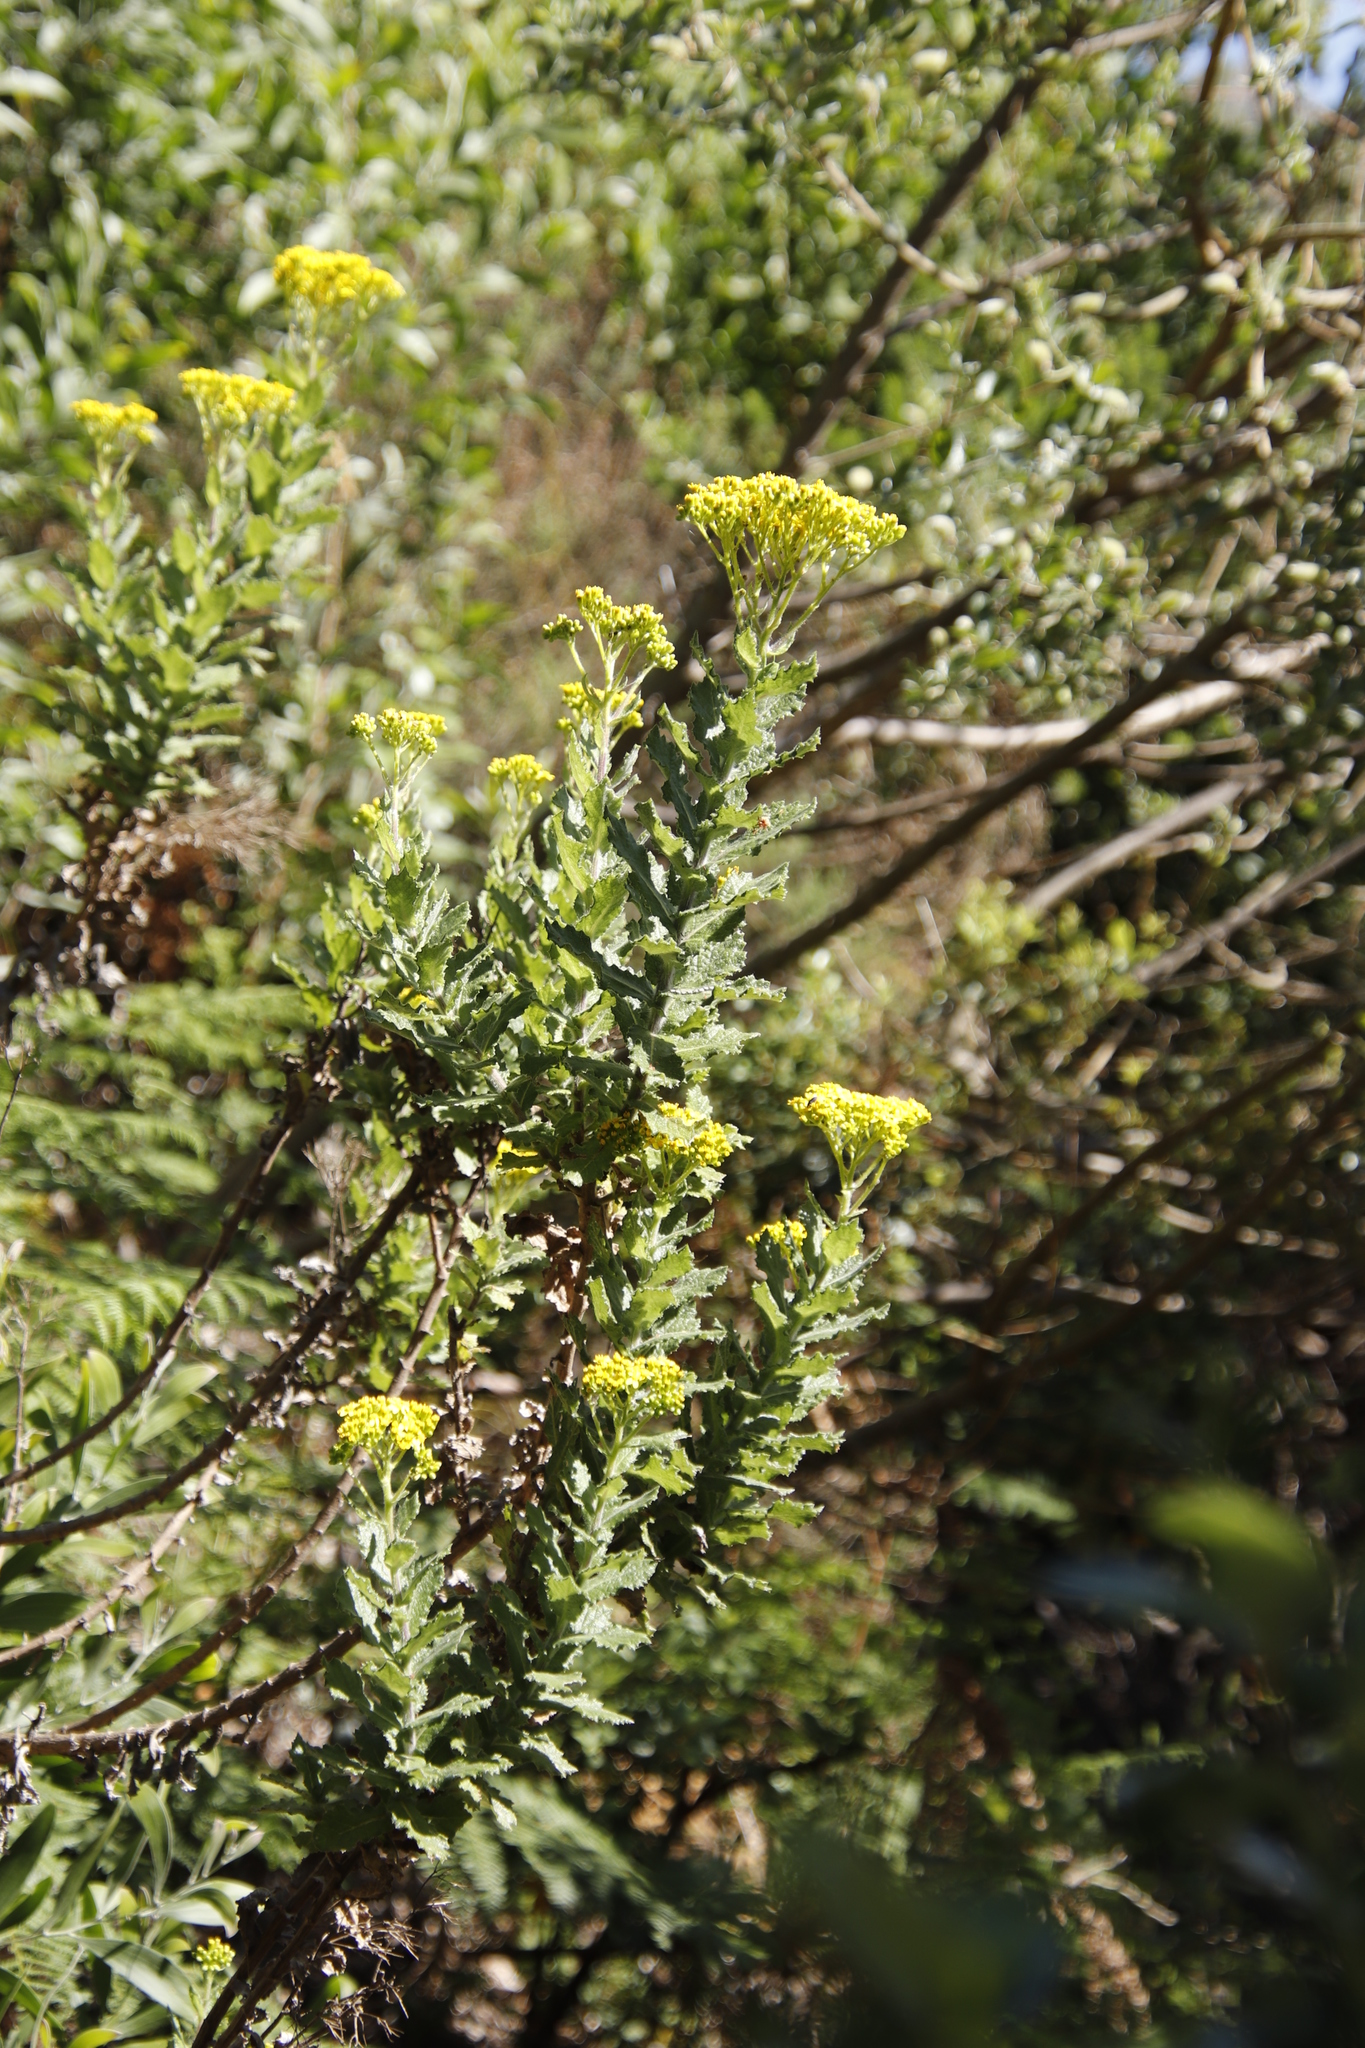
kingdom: Plantae
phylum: Tracheophyta
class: Magnoliopsida
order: Asterales
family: Asteraceae
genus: Senecio
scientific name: Senecio rigidus
